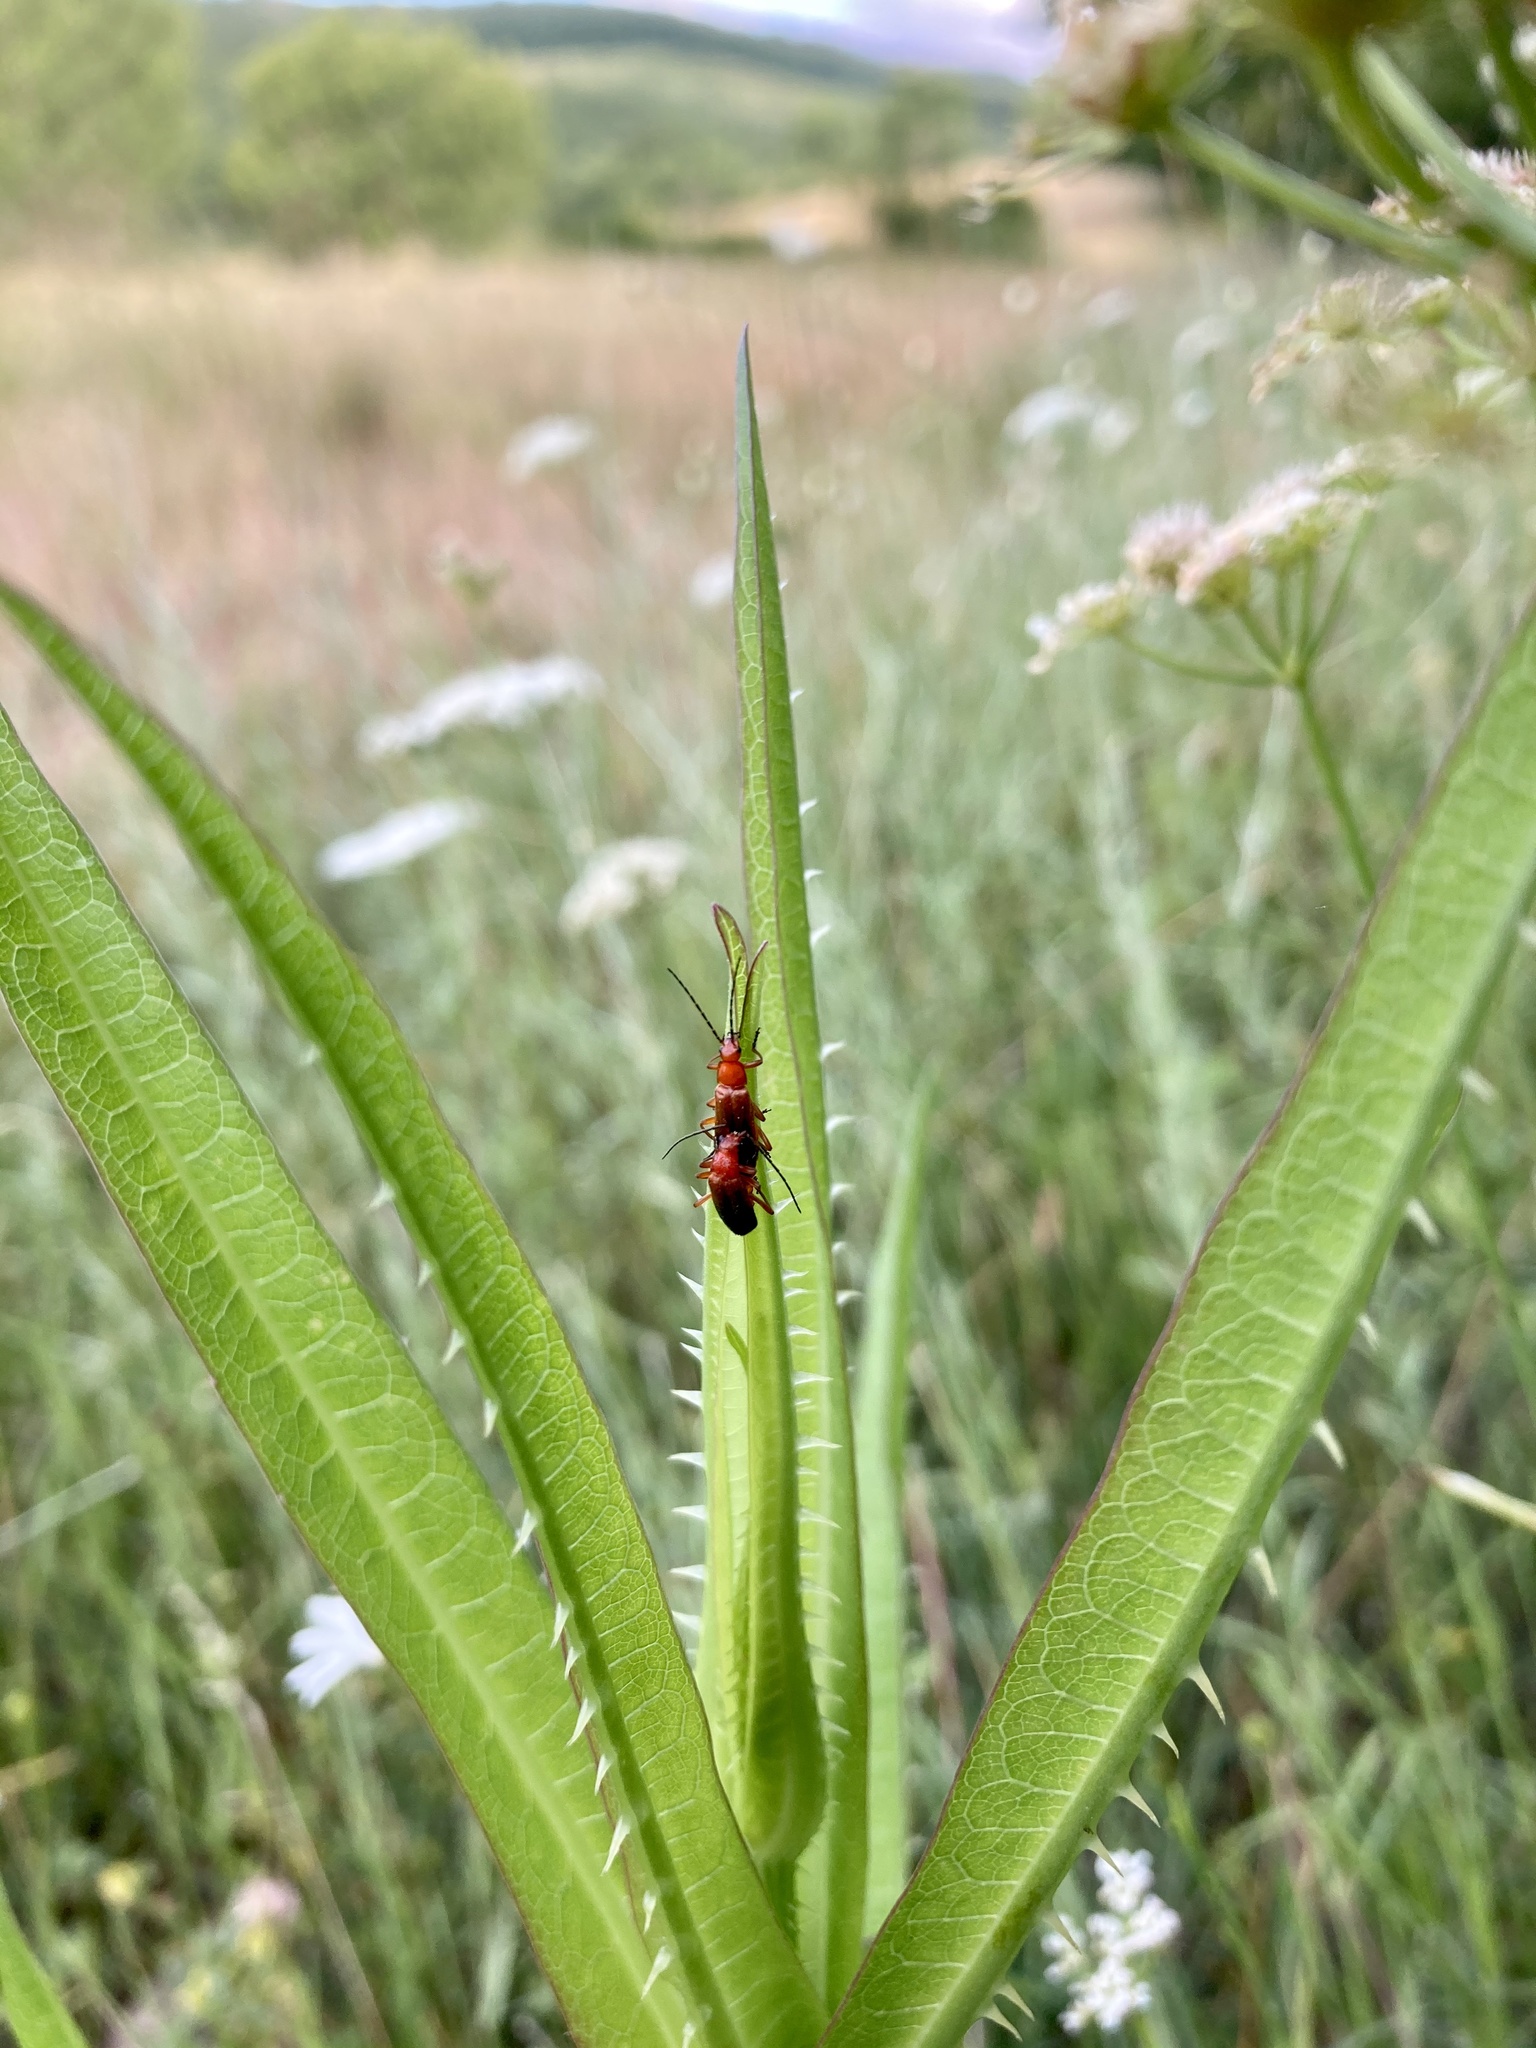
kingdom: Animalia
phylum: Arthropoda
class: Insecta
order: Coleoptera
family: Cantharidae
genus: Rhagonycha
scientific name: Rhagonycha fulva
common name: Common red soldier beetle
